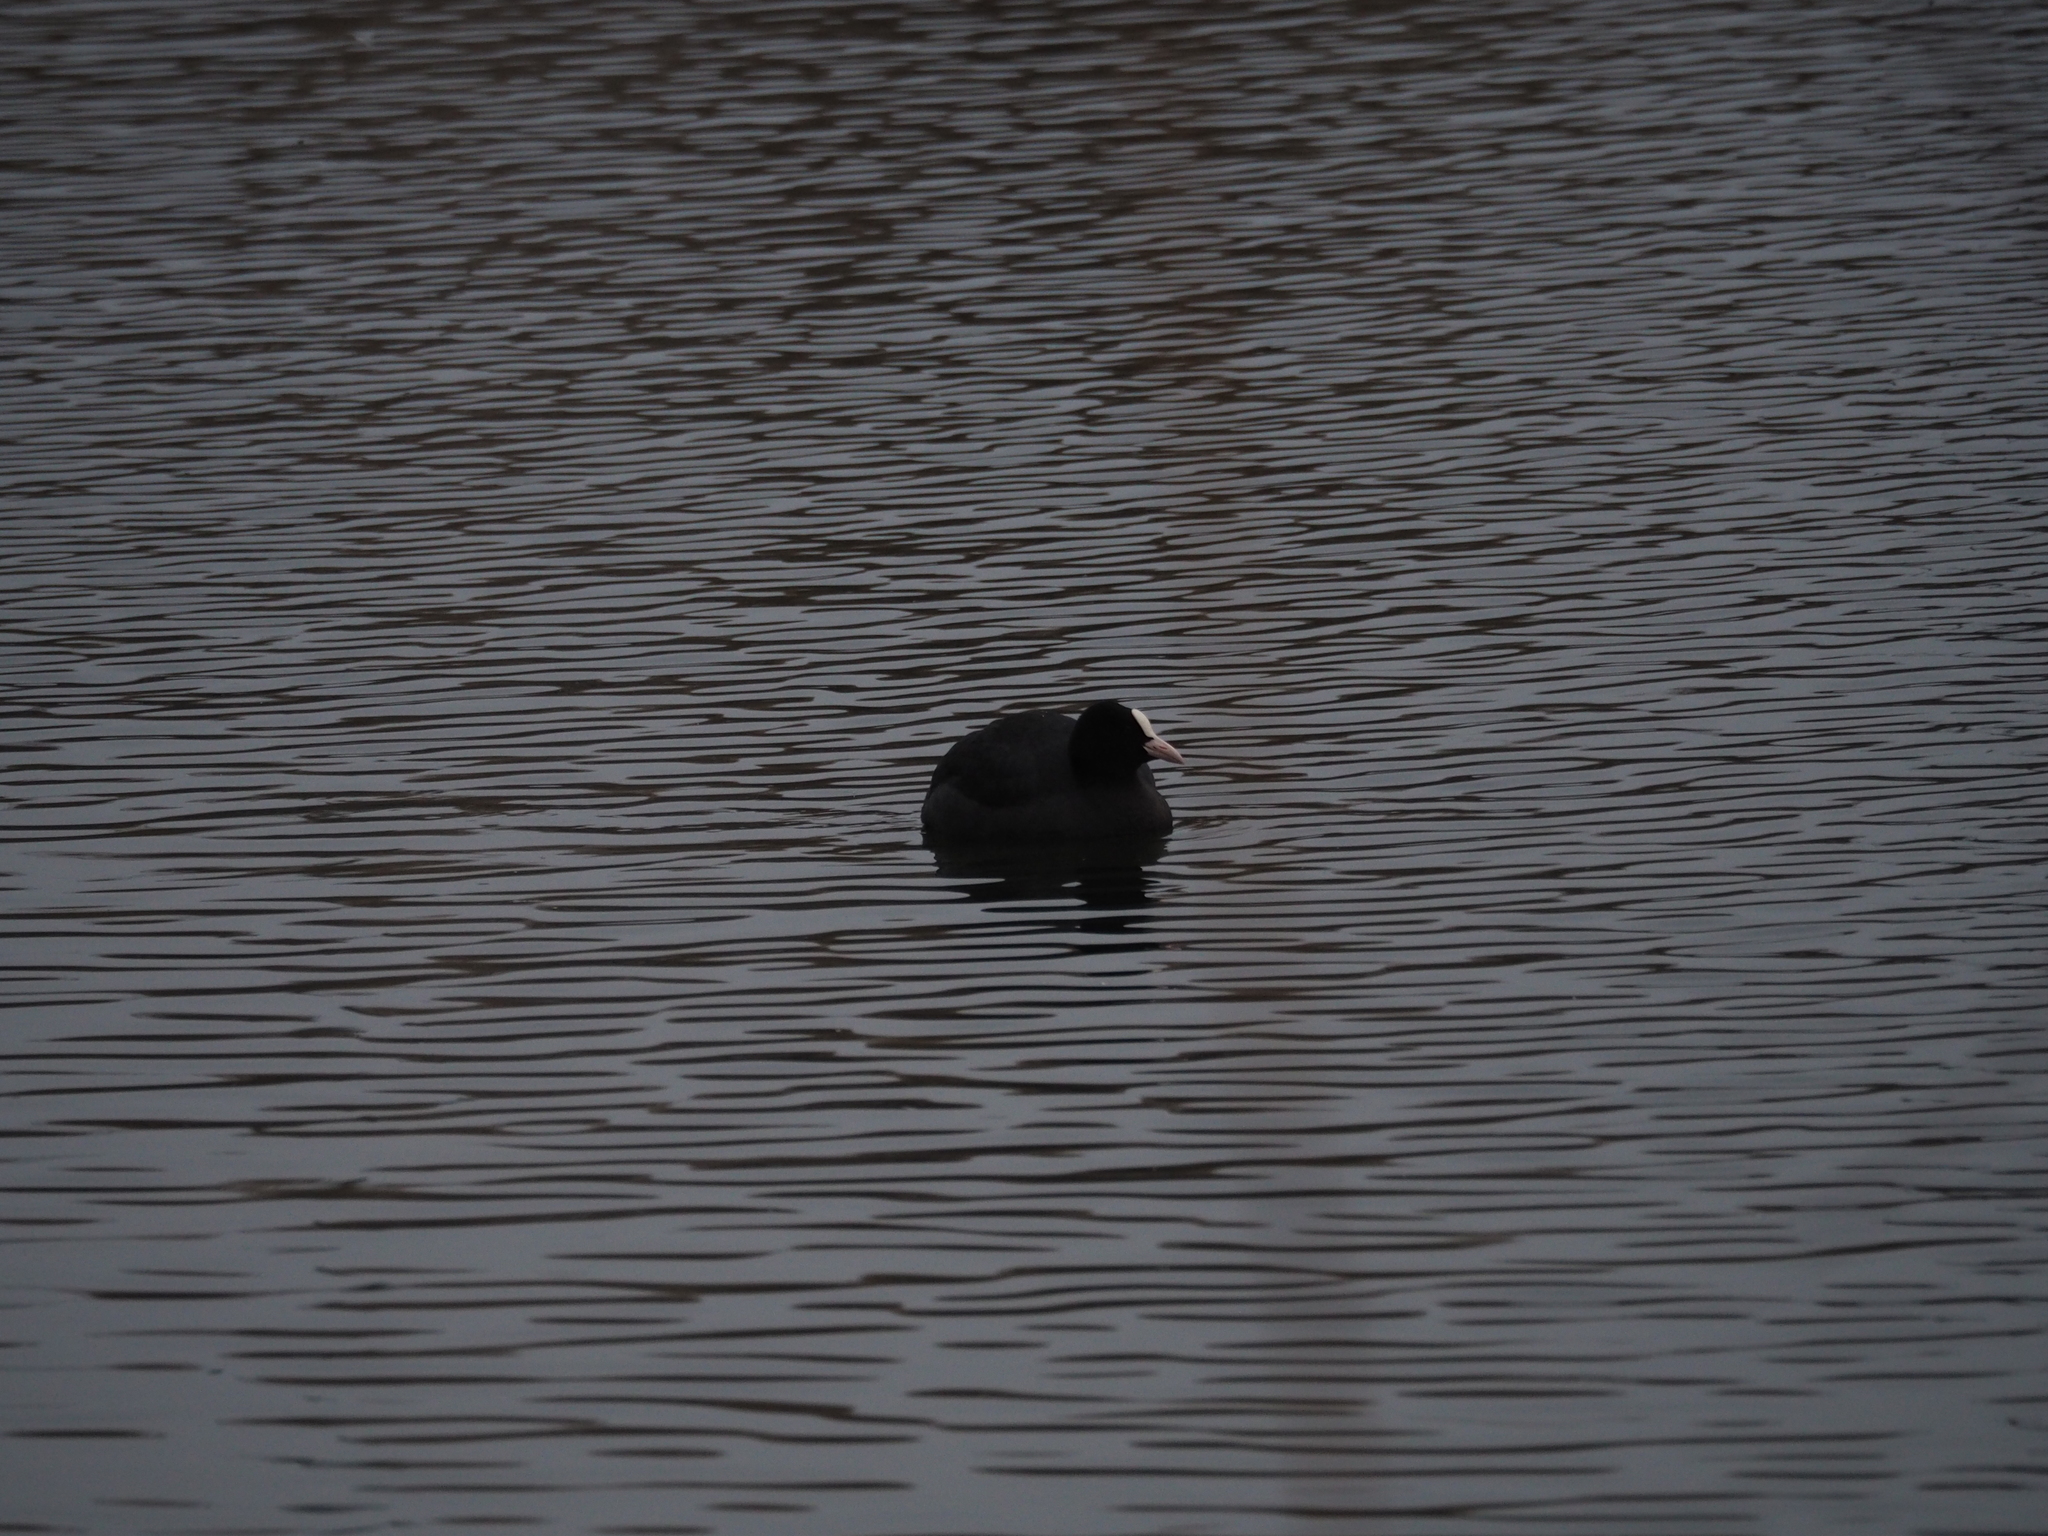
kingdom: Animalia
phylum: Chordata
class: Aves
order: Gruiformes
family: Rallidae
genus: Fulica
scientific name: Fulica atra
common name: Eurasian coot
